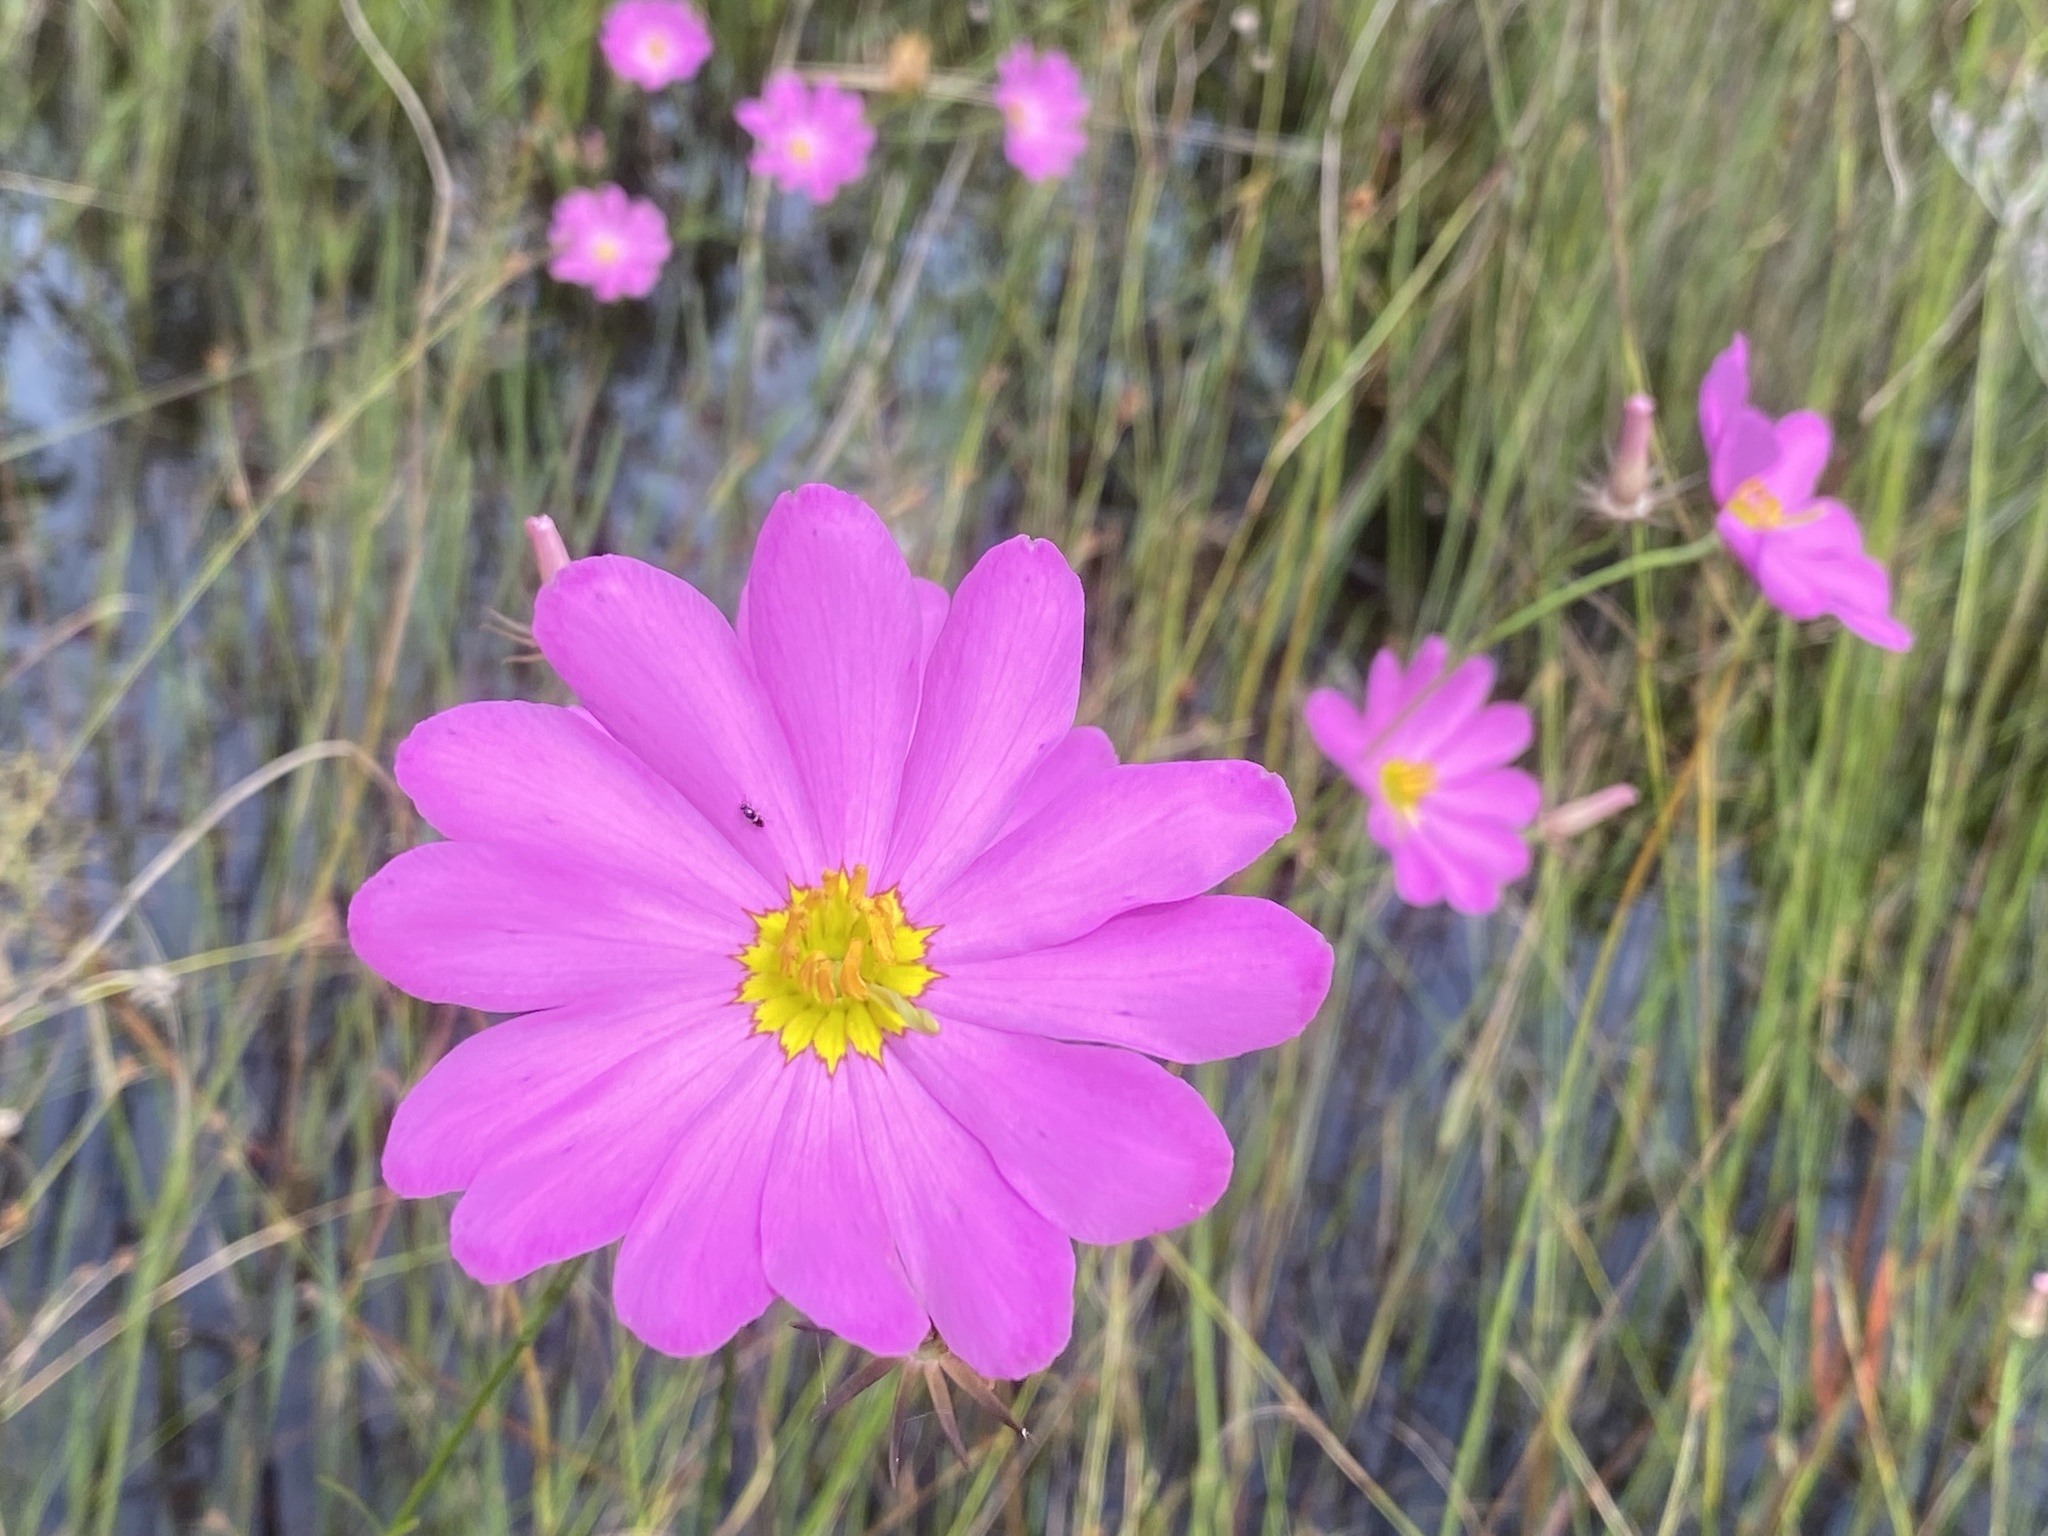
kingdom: Plantae
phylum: Tracheophyta
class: Magnoliopsida
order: Gentianales
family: Gentianaceae
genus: Sabatia
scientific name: Sabatia decandra
